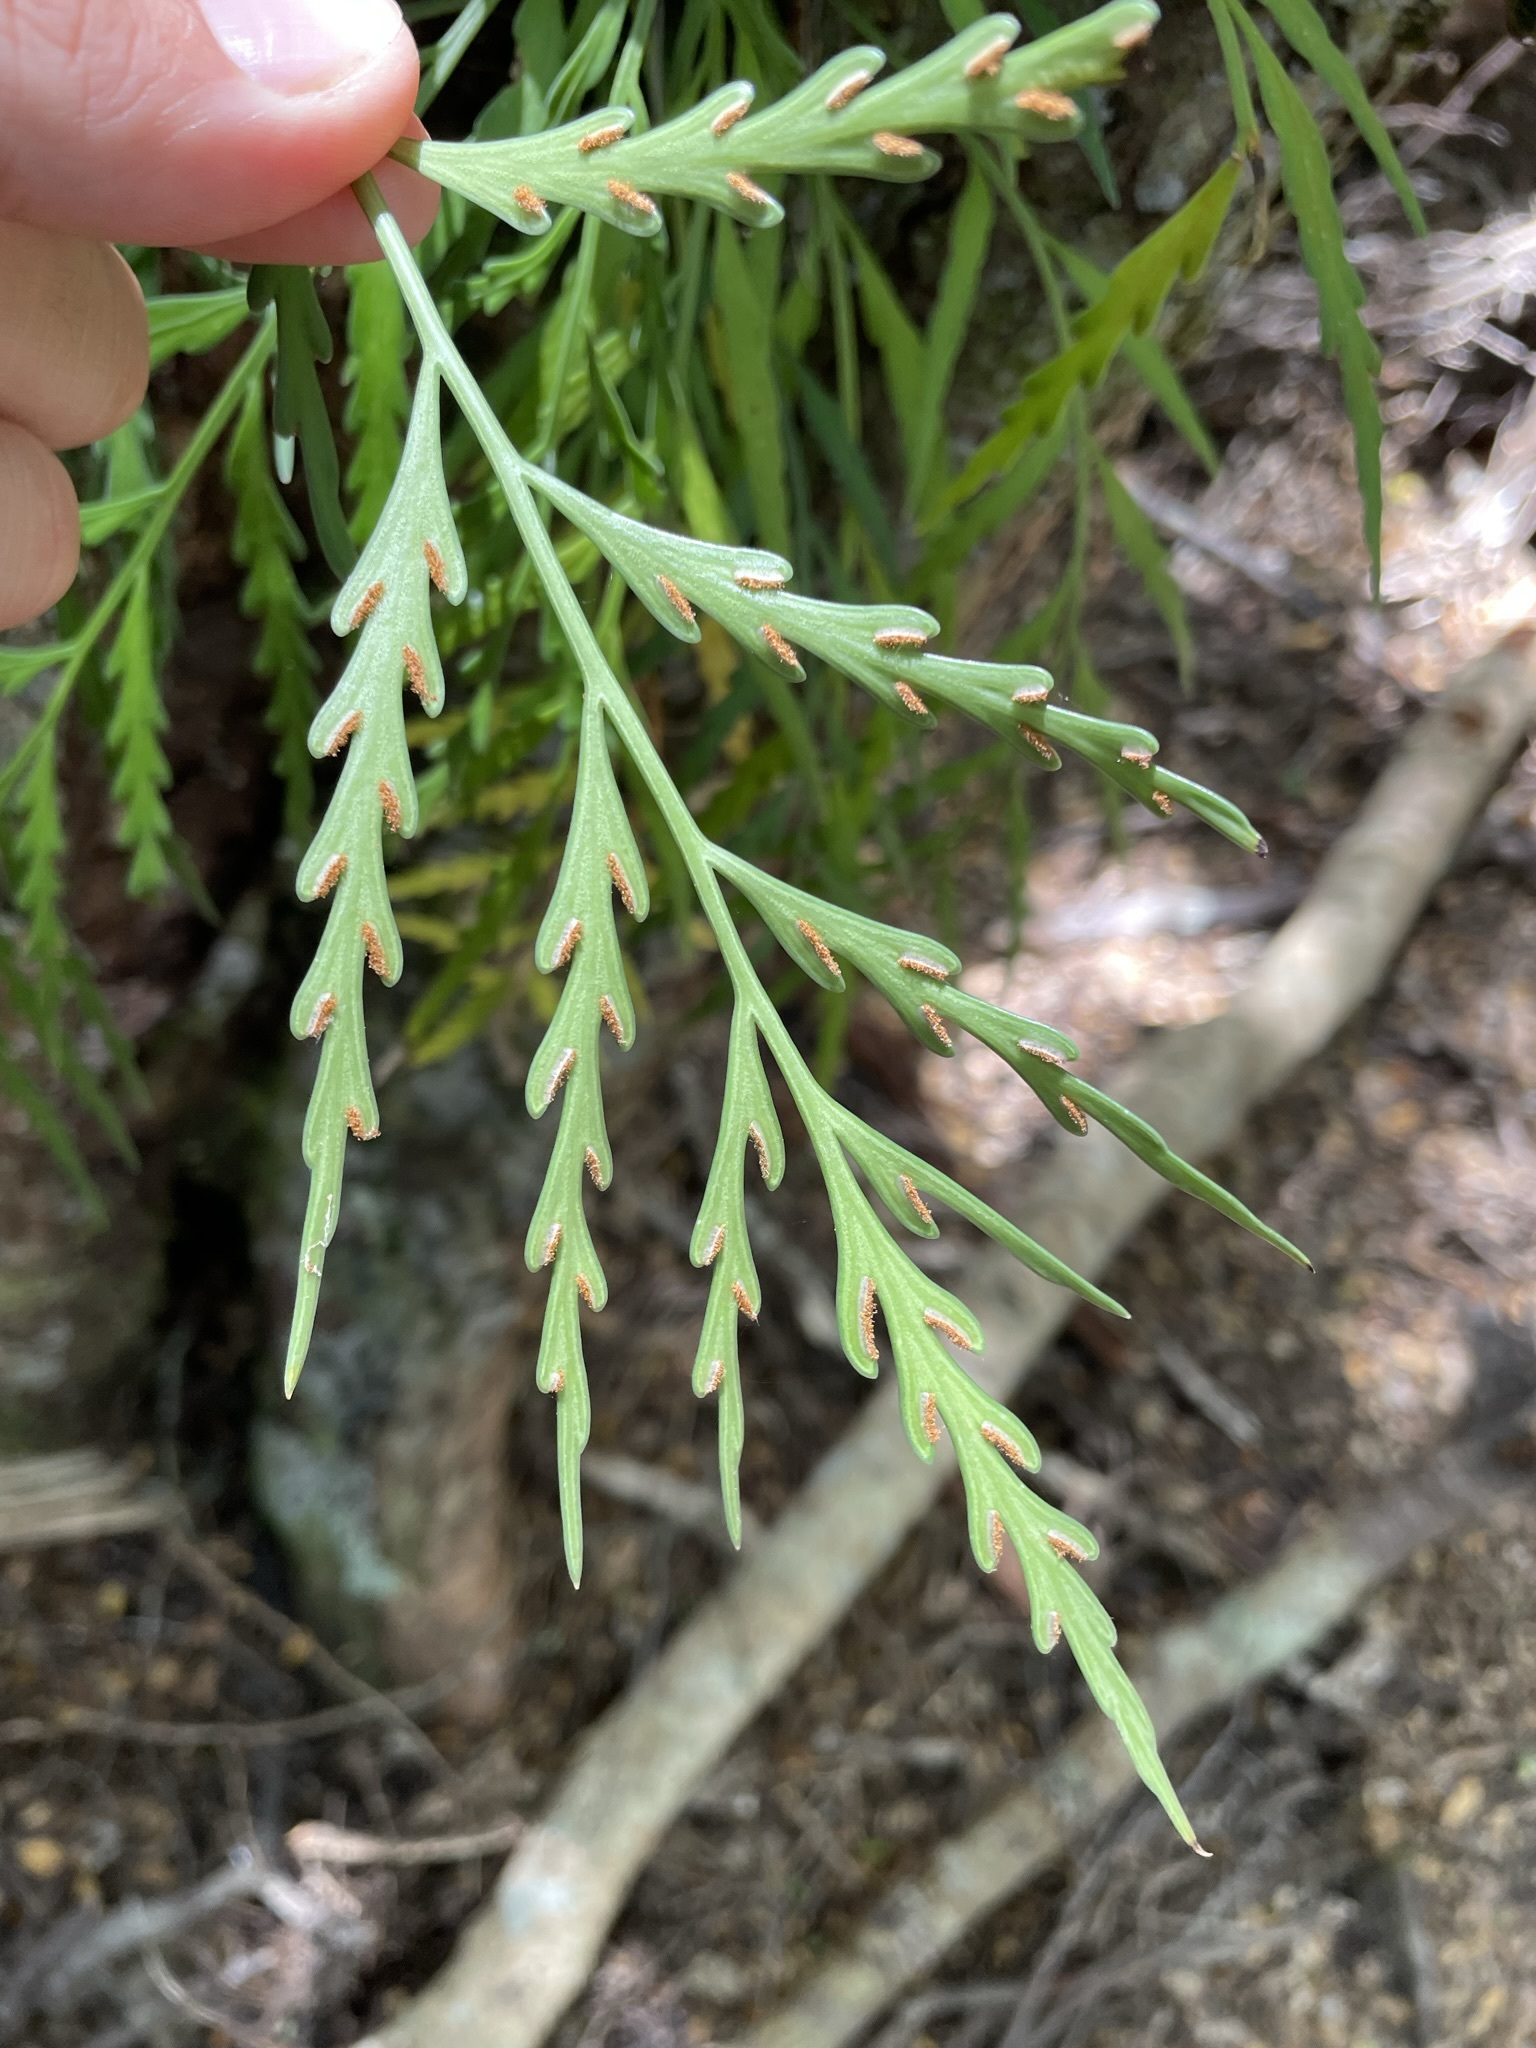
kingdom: Plantae
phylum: Tracheophyta
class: Polypodiopsida
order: Polypodiales
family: Aspleniaceae
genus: Asplenium
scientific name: Asplenium flaccidum
